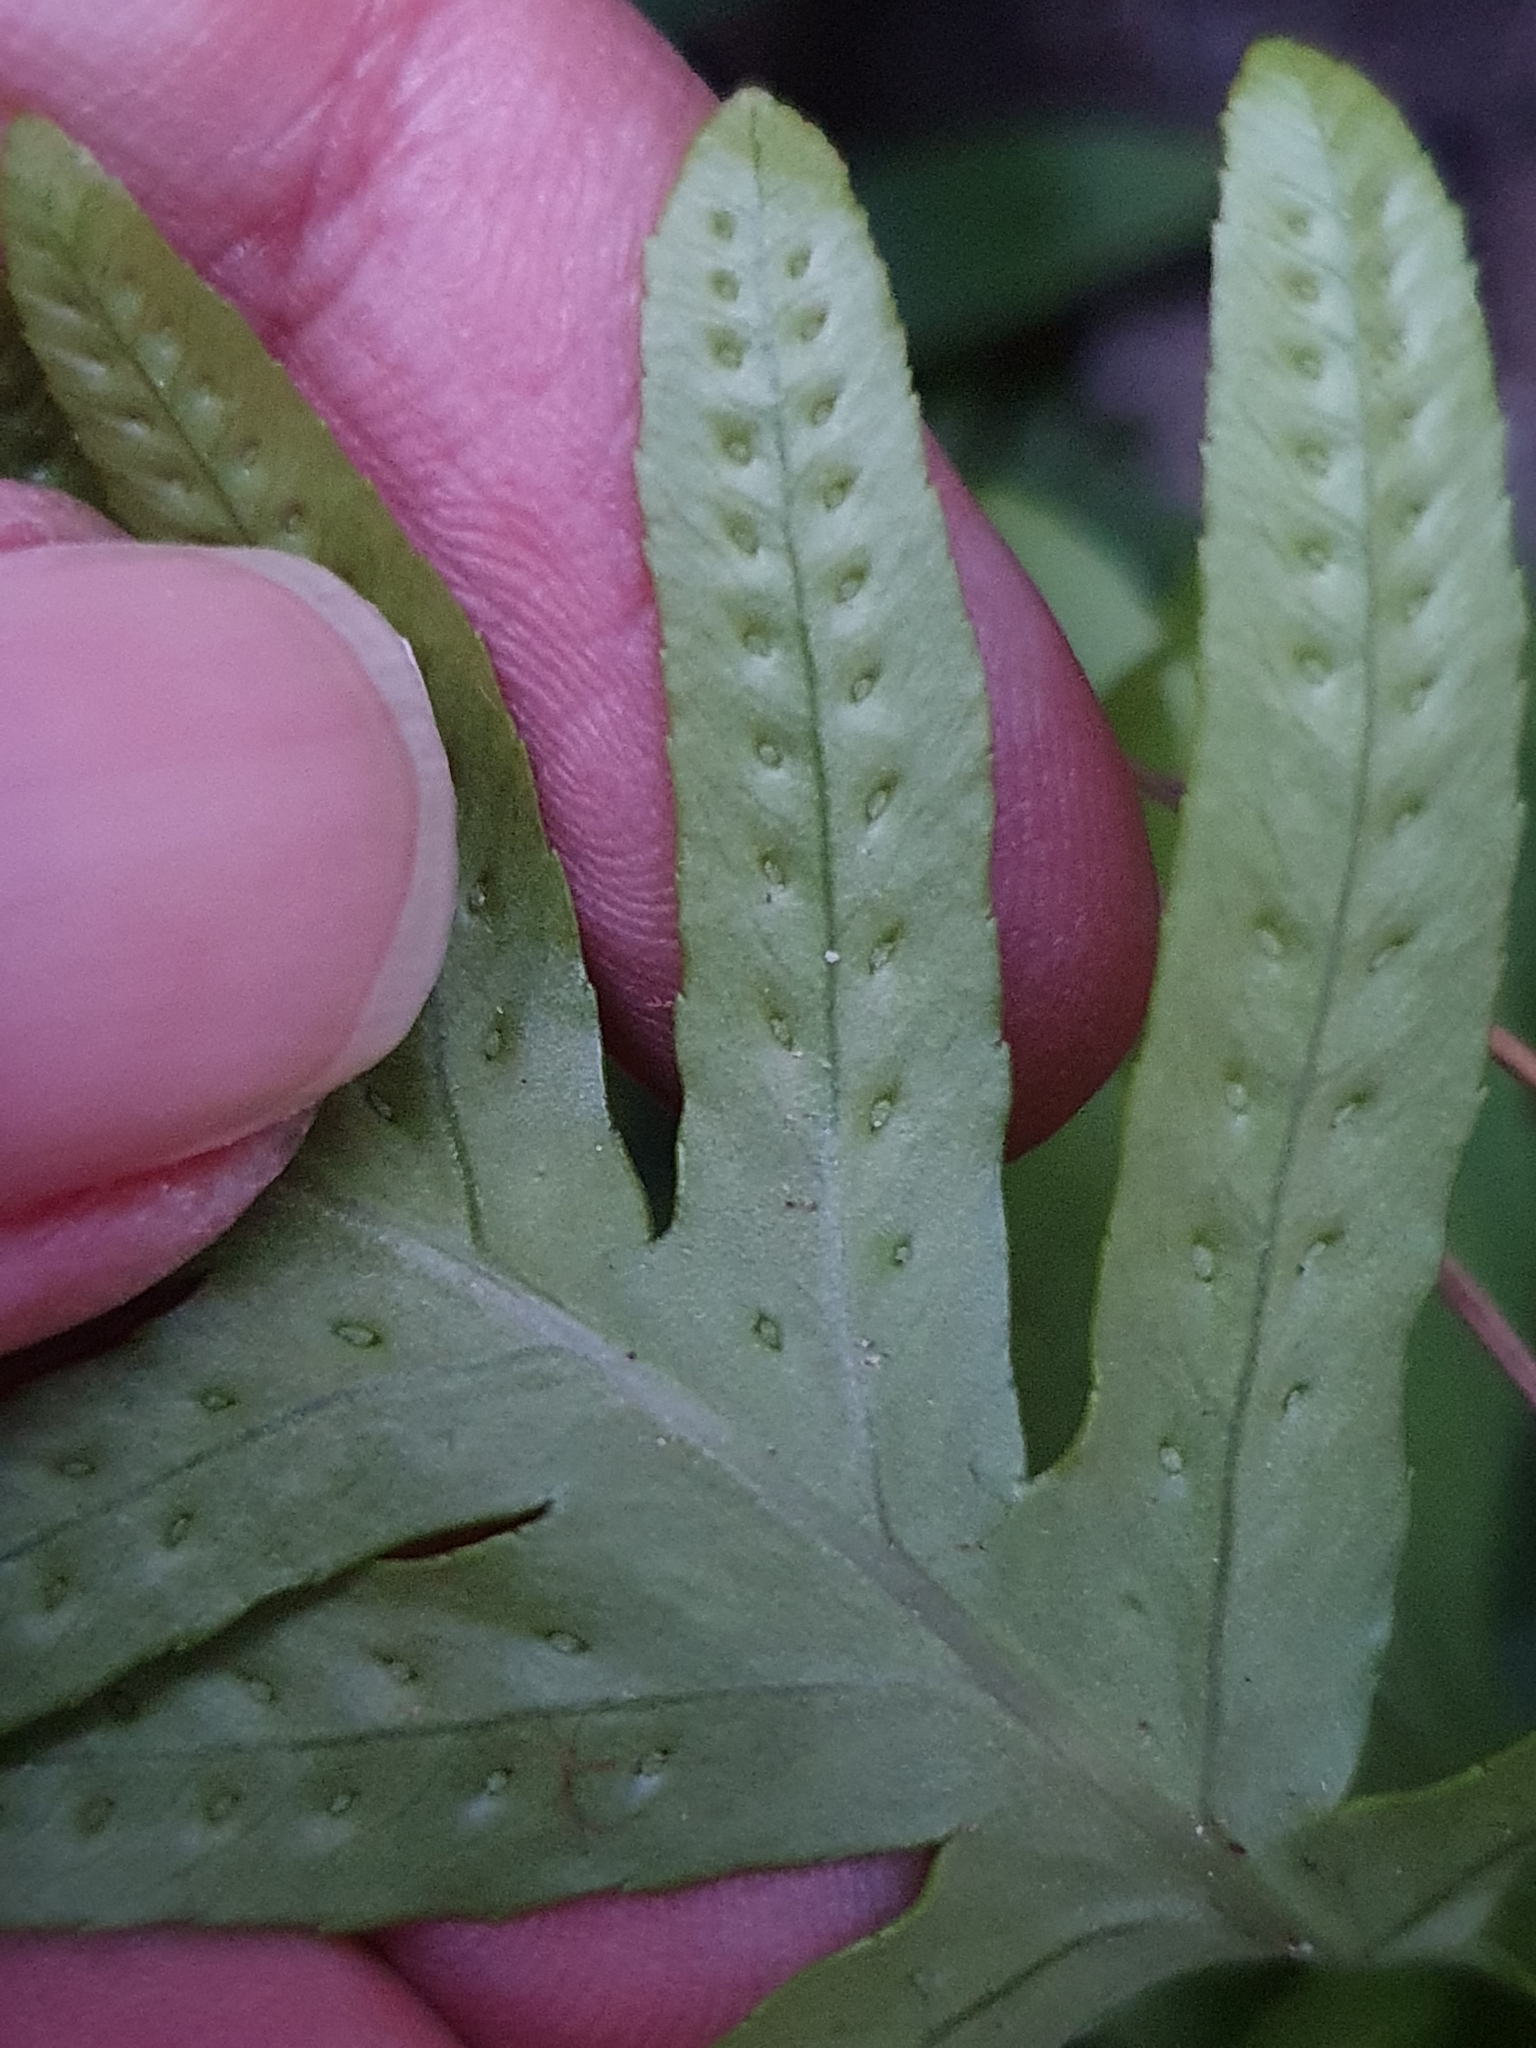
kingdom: Plantae
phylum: Tracheophyta
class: Polypodiopsida
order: Polypodiales
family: Polypodiaceae
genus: Polypodium
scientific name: Polypodium cambricum
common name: Southern polypody
